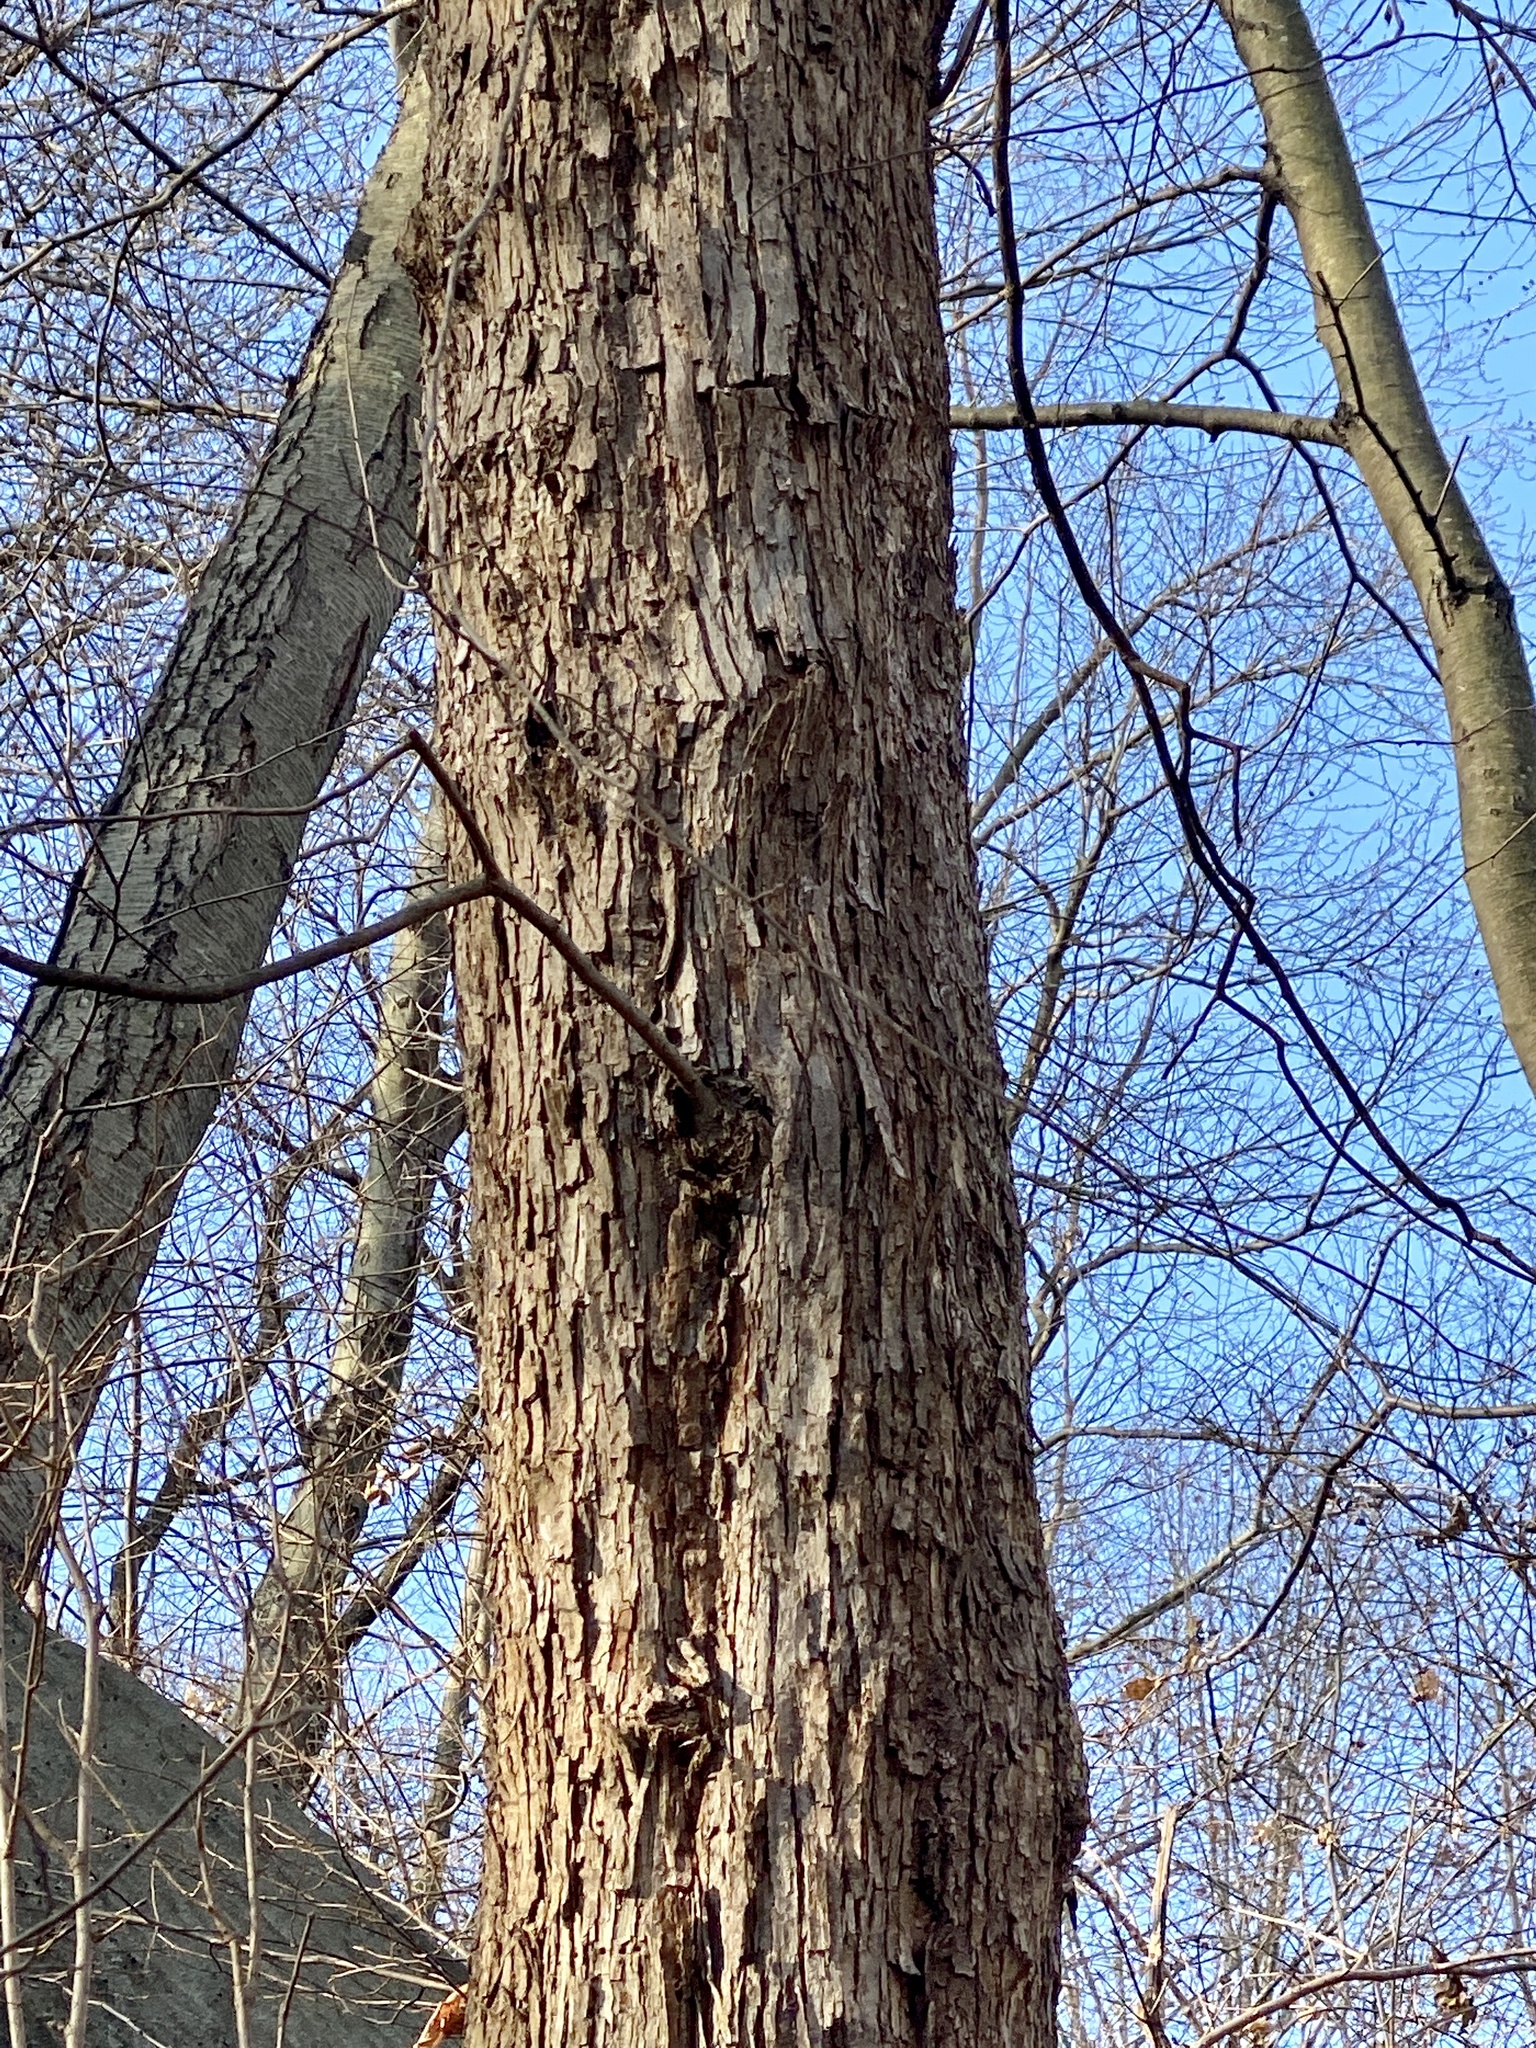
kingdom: Plantae
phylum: Tracheophyta
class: Magnoliopsida
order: Fagales
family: Betulaceae
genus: Ostrya
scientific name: Ostrya virginiana
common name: Ironwood
